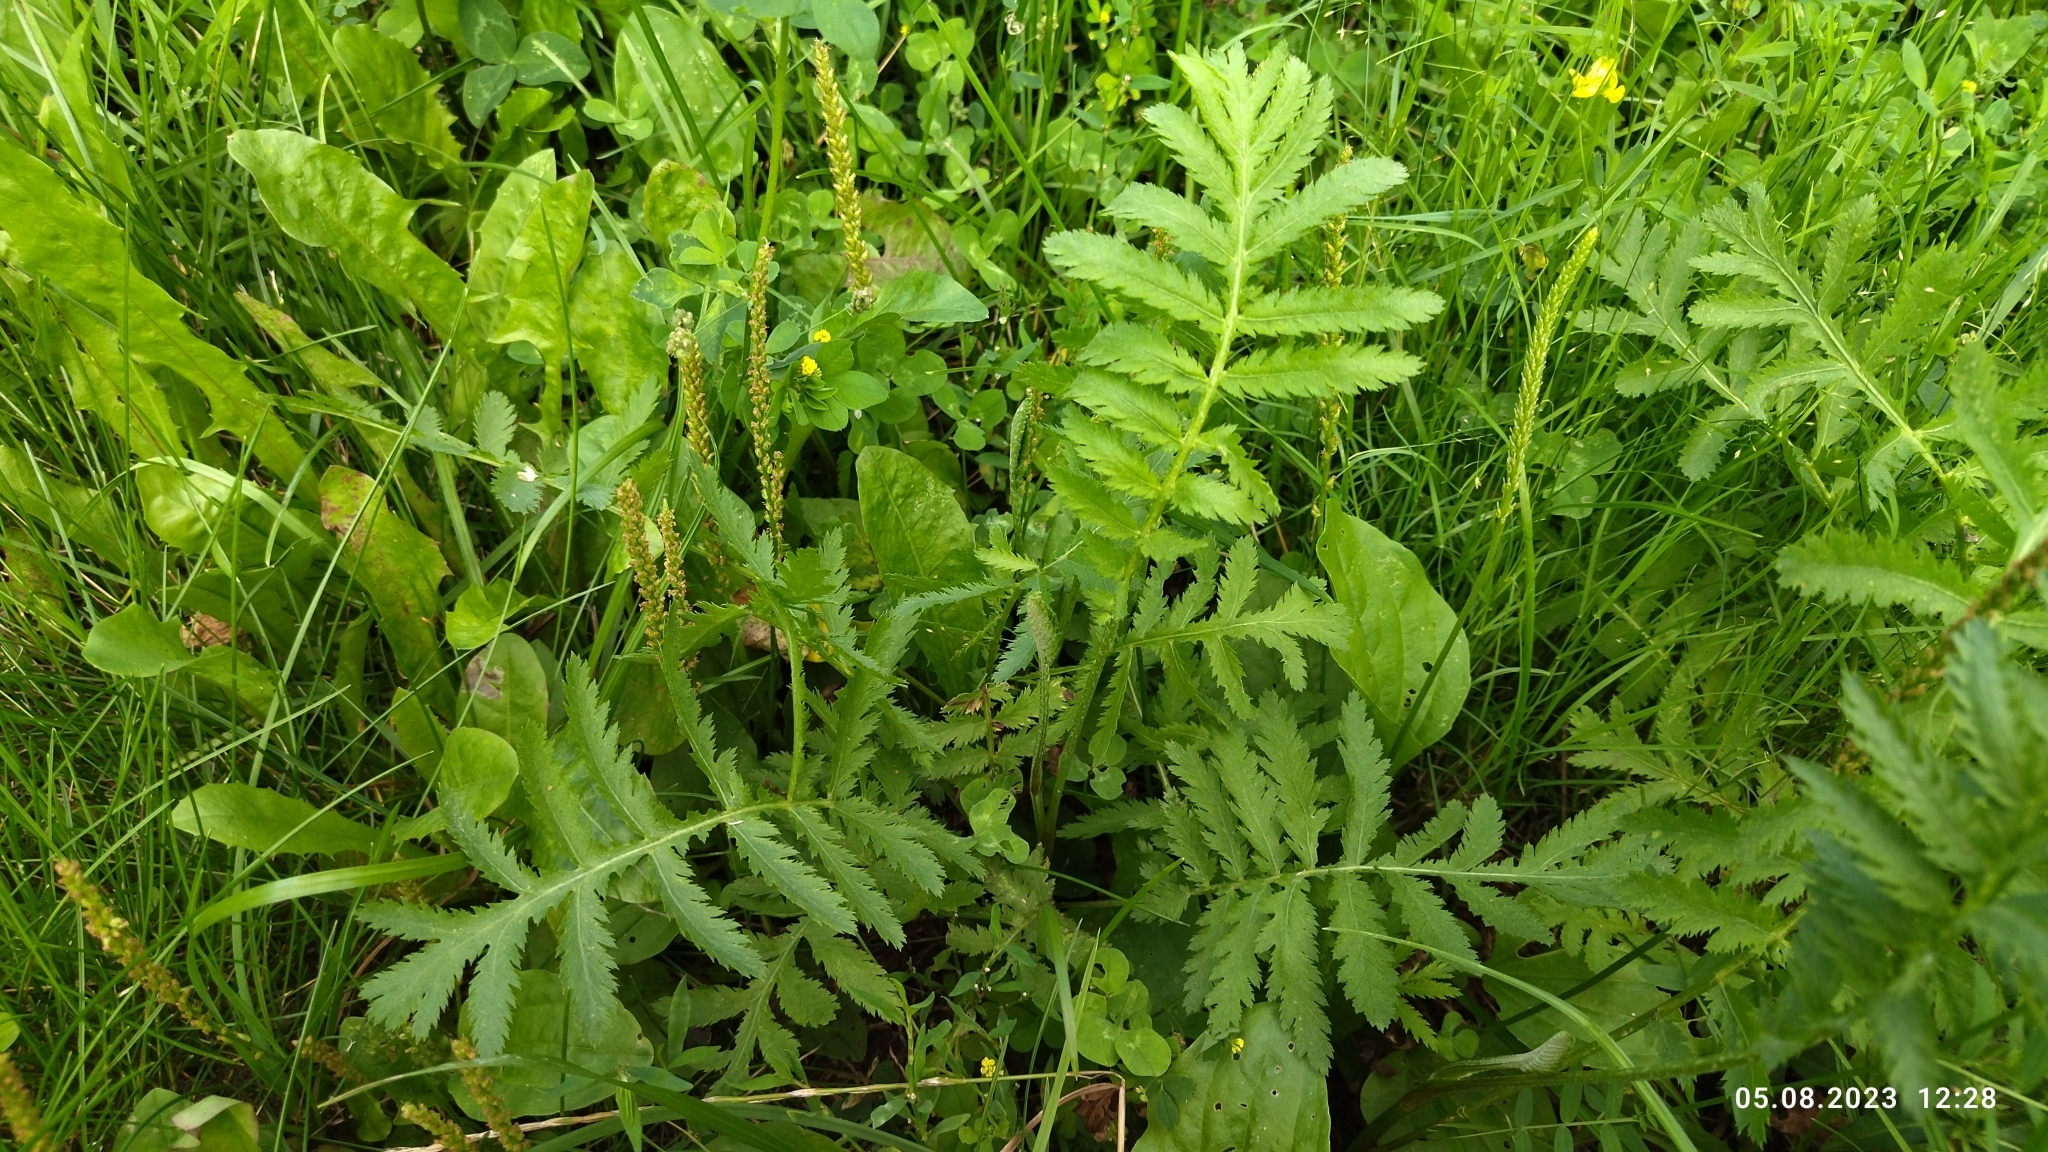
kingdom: Plantae
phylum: Tracheophyta
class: Magnoliopsida
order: Asterales
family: Asteraceae
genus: Tanacetum
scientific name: Tanacetum vulgare
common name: Common tansy
